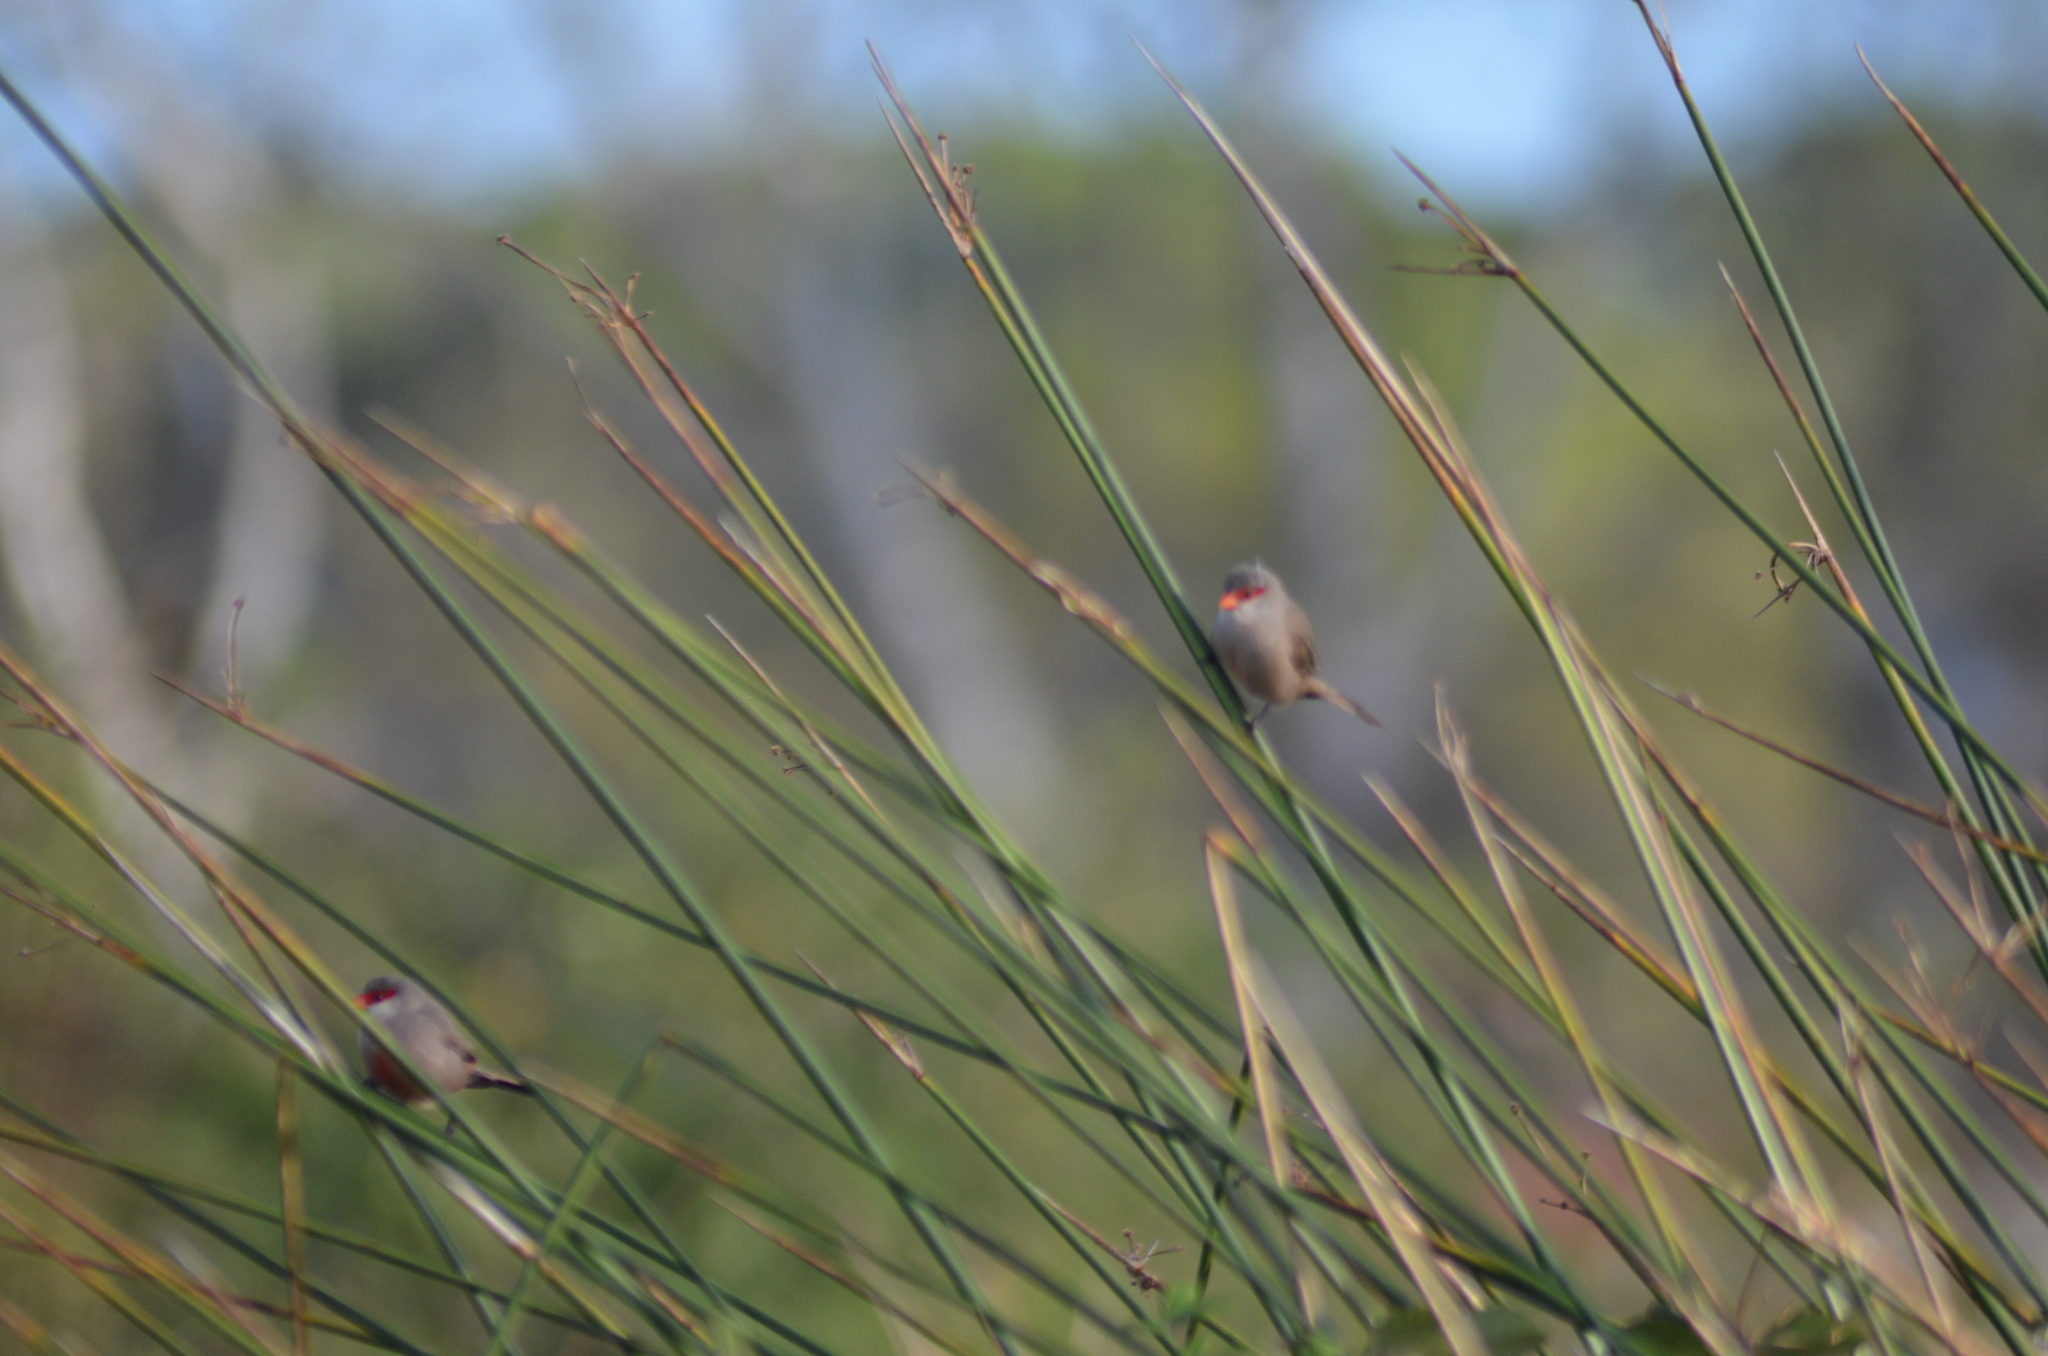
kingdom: Animalia
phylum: Chordata
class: Aves
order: Passeriformes
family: Estrildidae
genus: Estrilda
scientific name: Estrilda astrild
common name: Common waxbill
